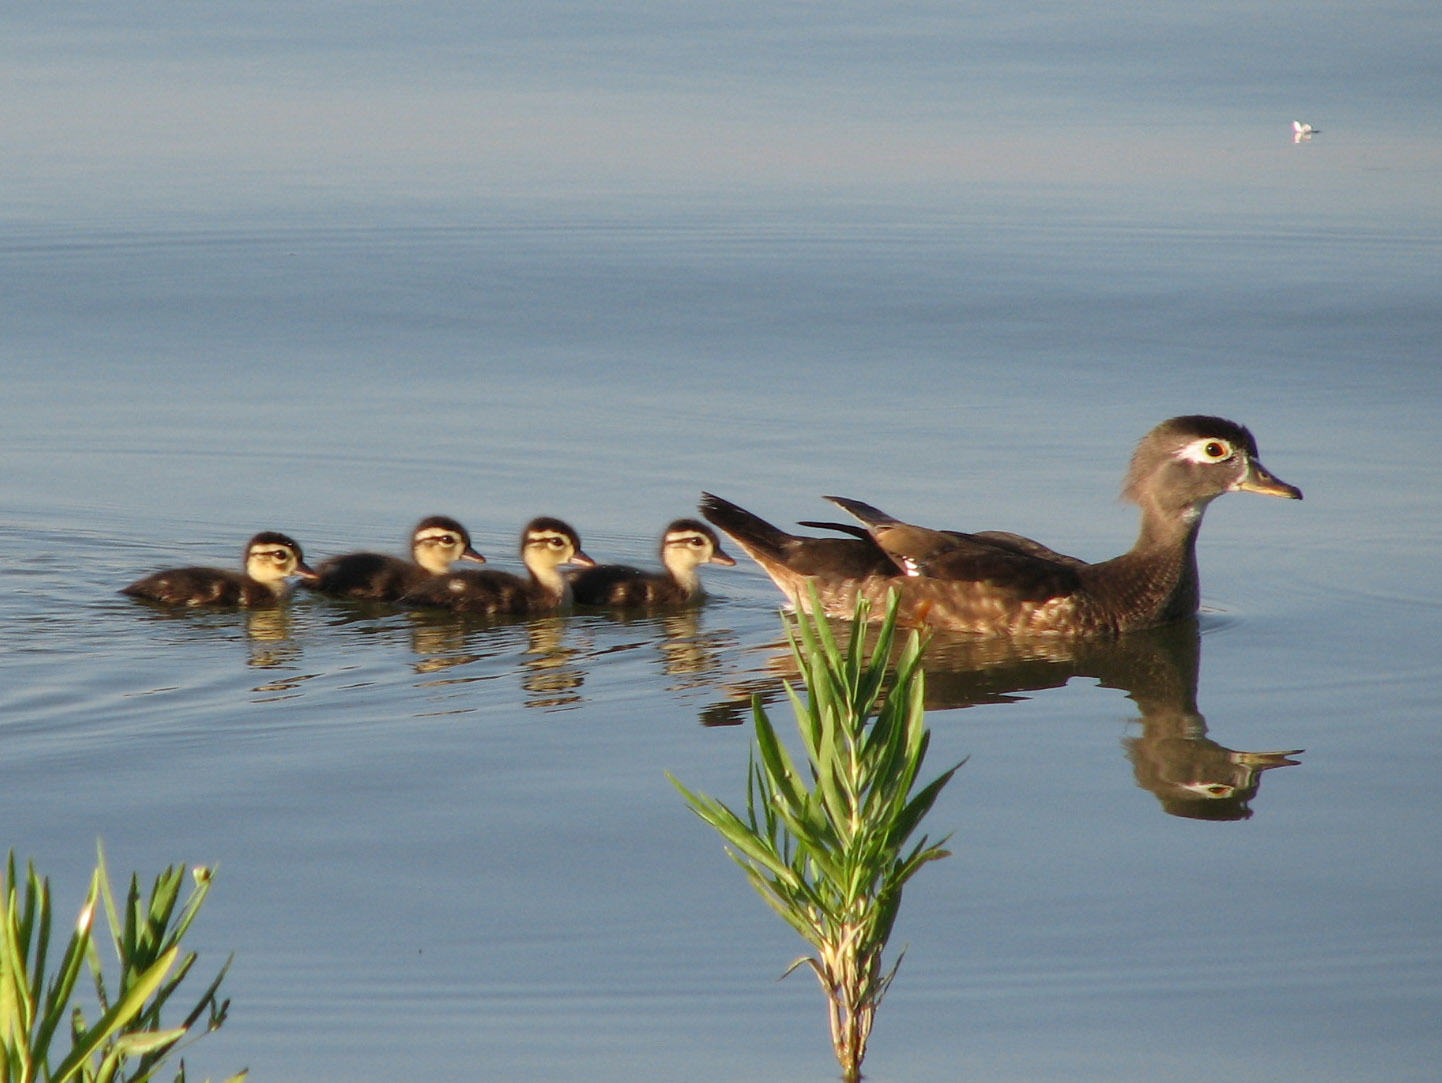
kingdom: Animalia
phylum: Chordata
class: Aves
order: Anseriformes
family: Anatidae
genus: Aix
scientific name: Aix sponsa
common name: Wood duck
